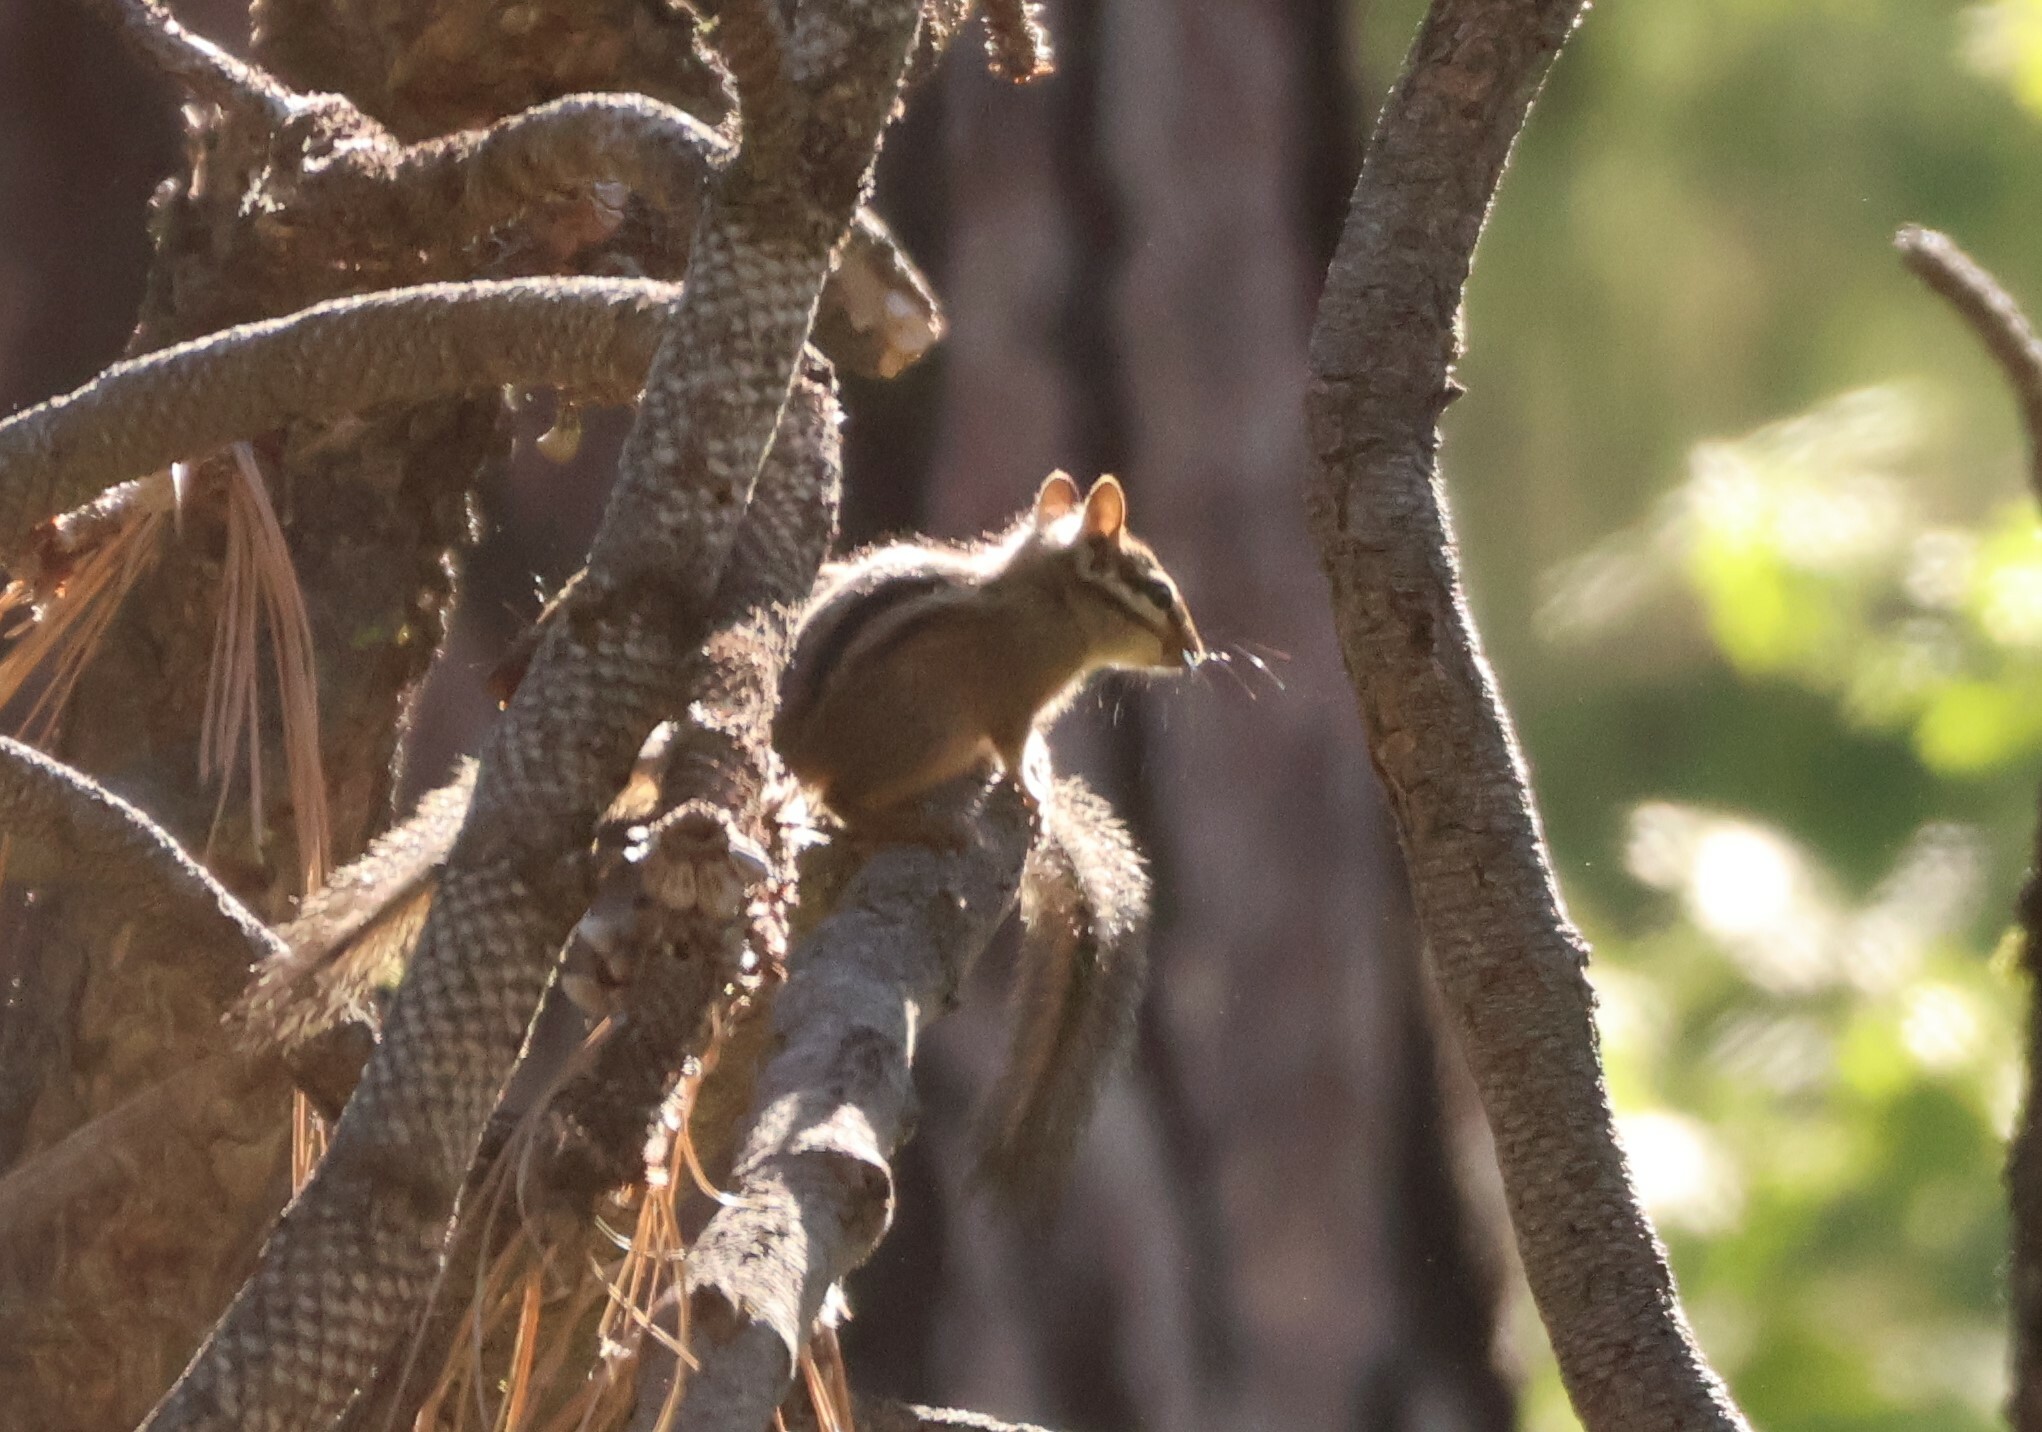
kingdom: Animalia
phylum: Chordata
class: Mammalia
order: Rodentia
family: Sciuridae
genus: Tamias
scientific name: Tamias merriami
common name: Merriam's chipmunk
